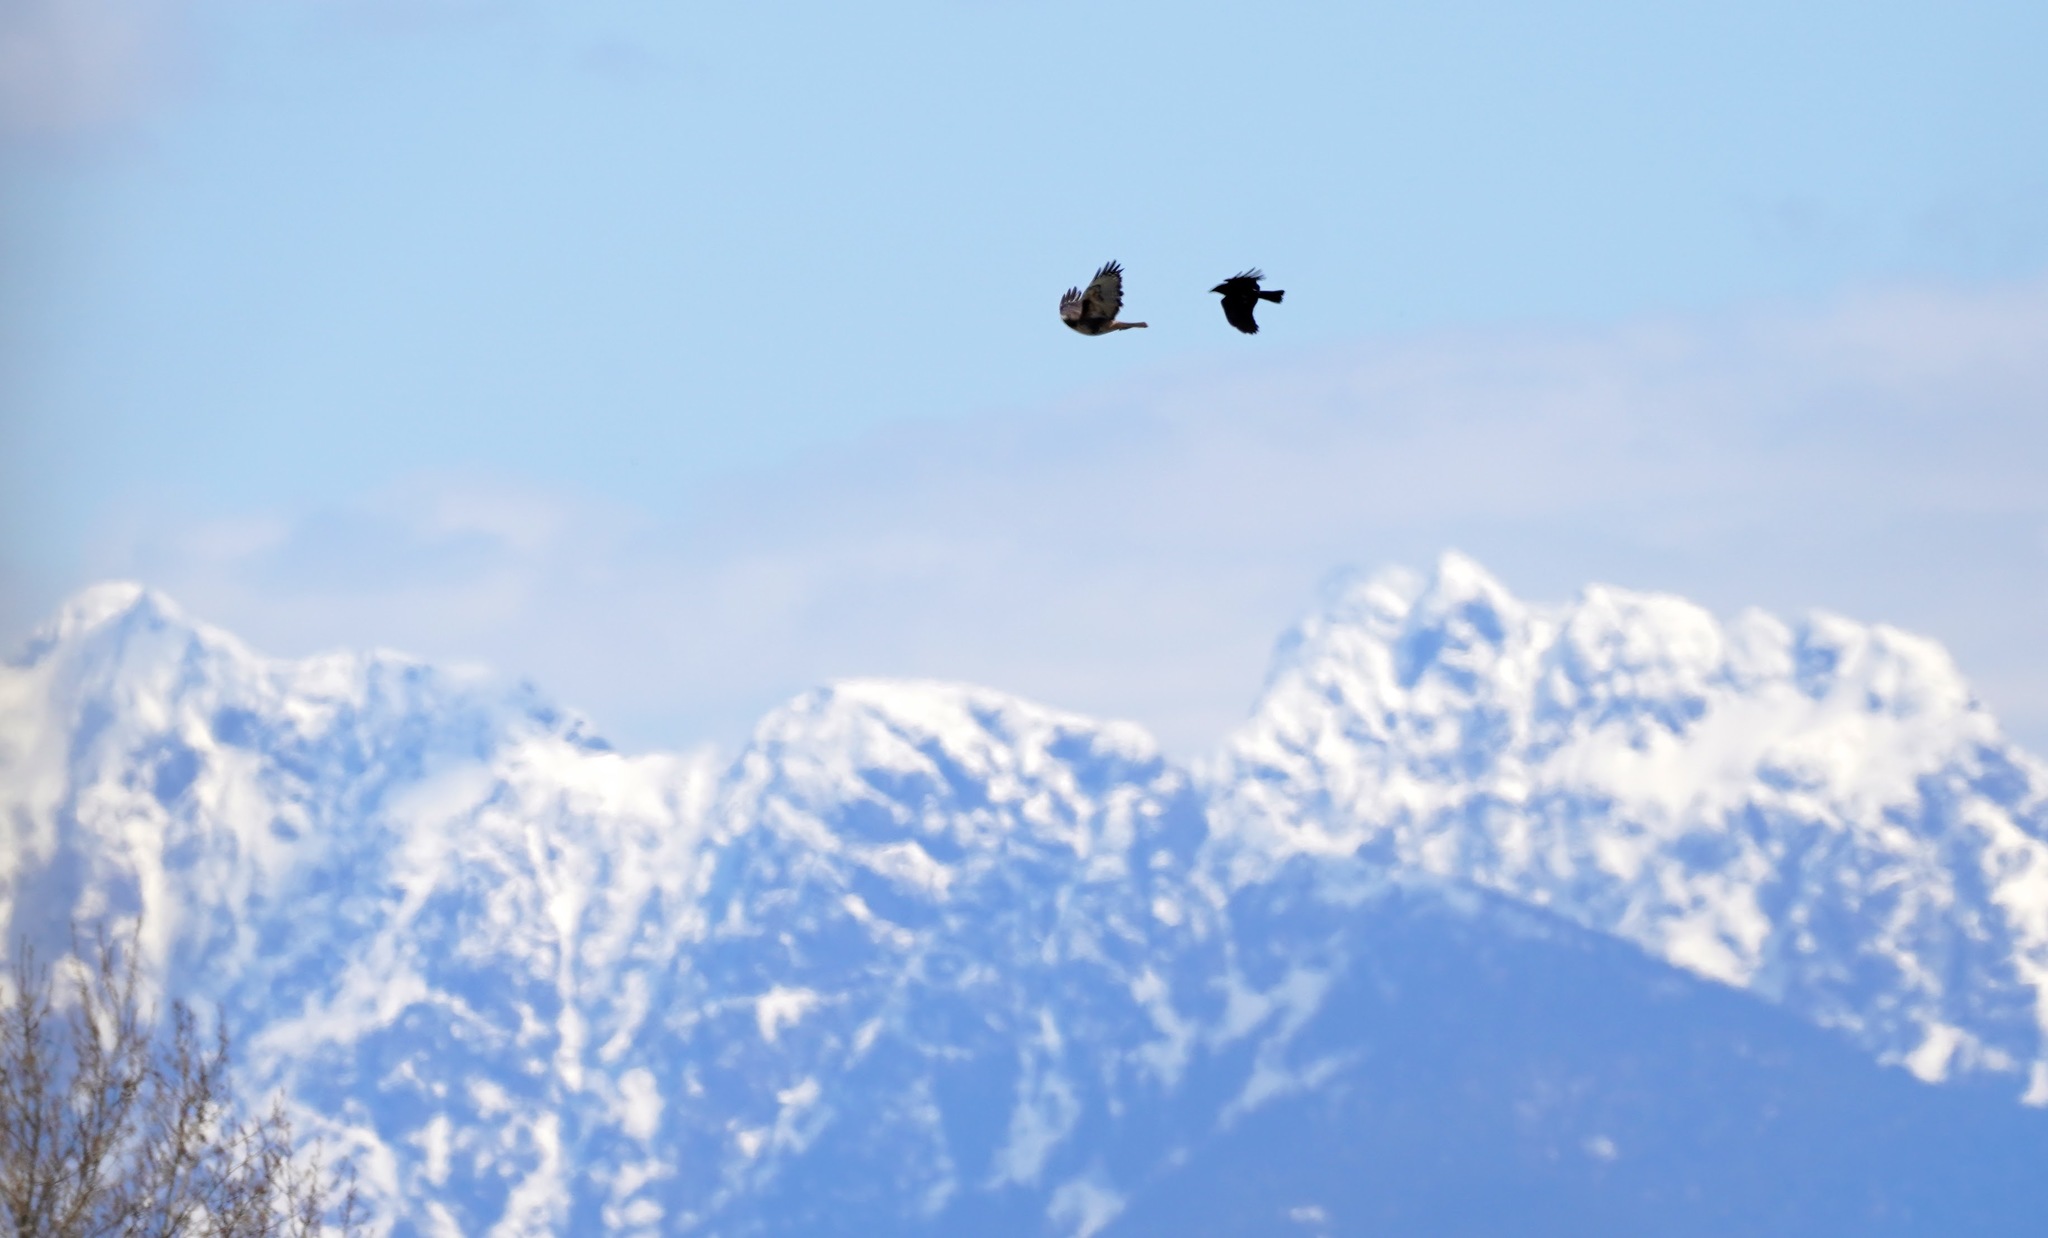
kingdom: Animalia
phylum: Chordata
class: Aves
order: Accipitriformes
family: Accipitridae
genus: Buteo
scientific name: Buteo jamaicensis
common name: Red-tailed hawk
